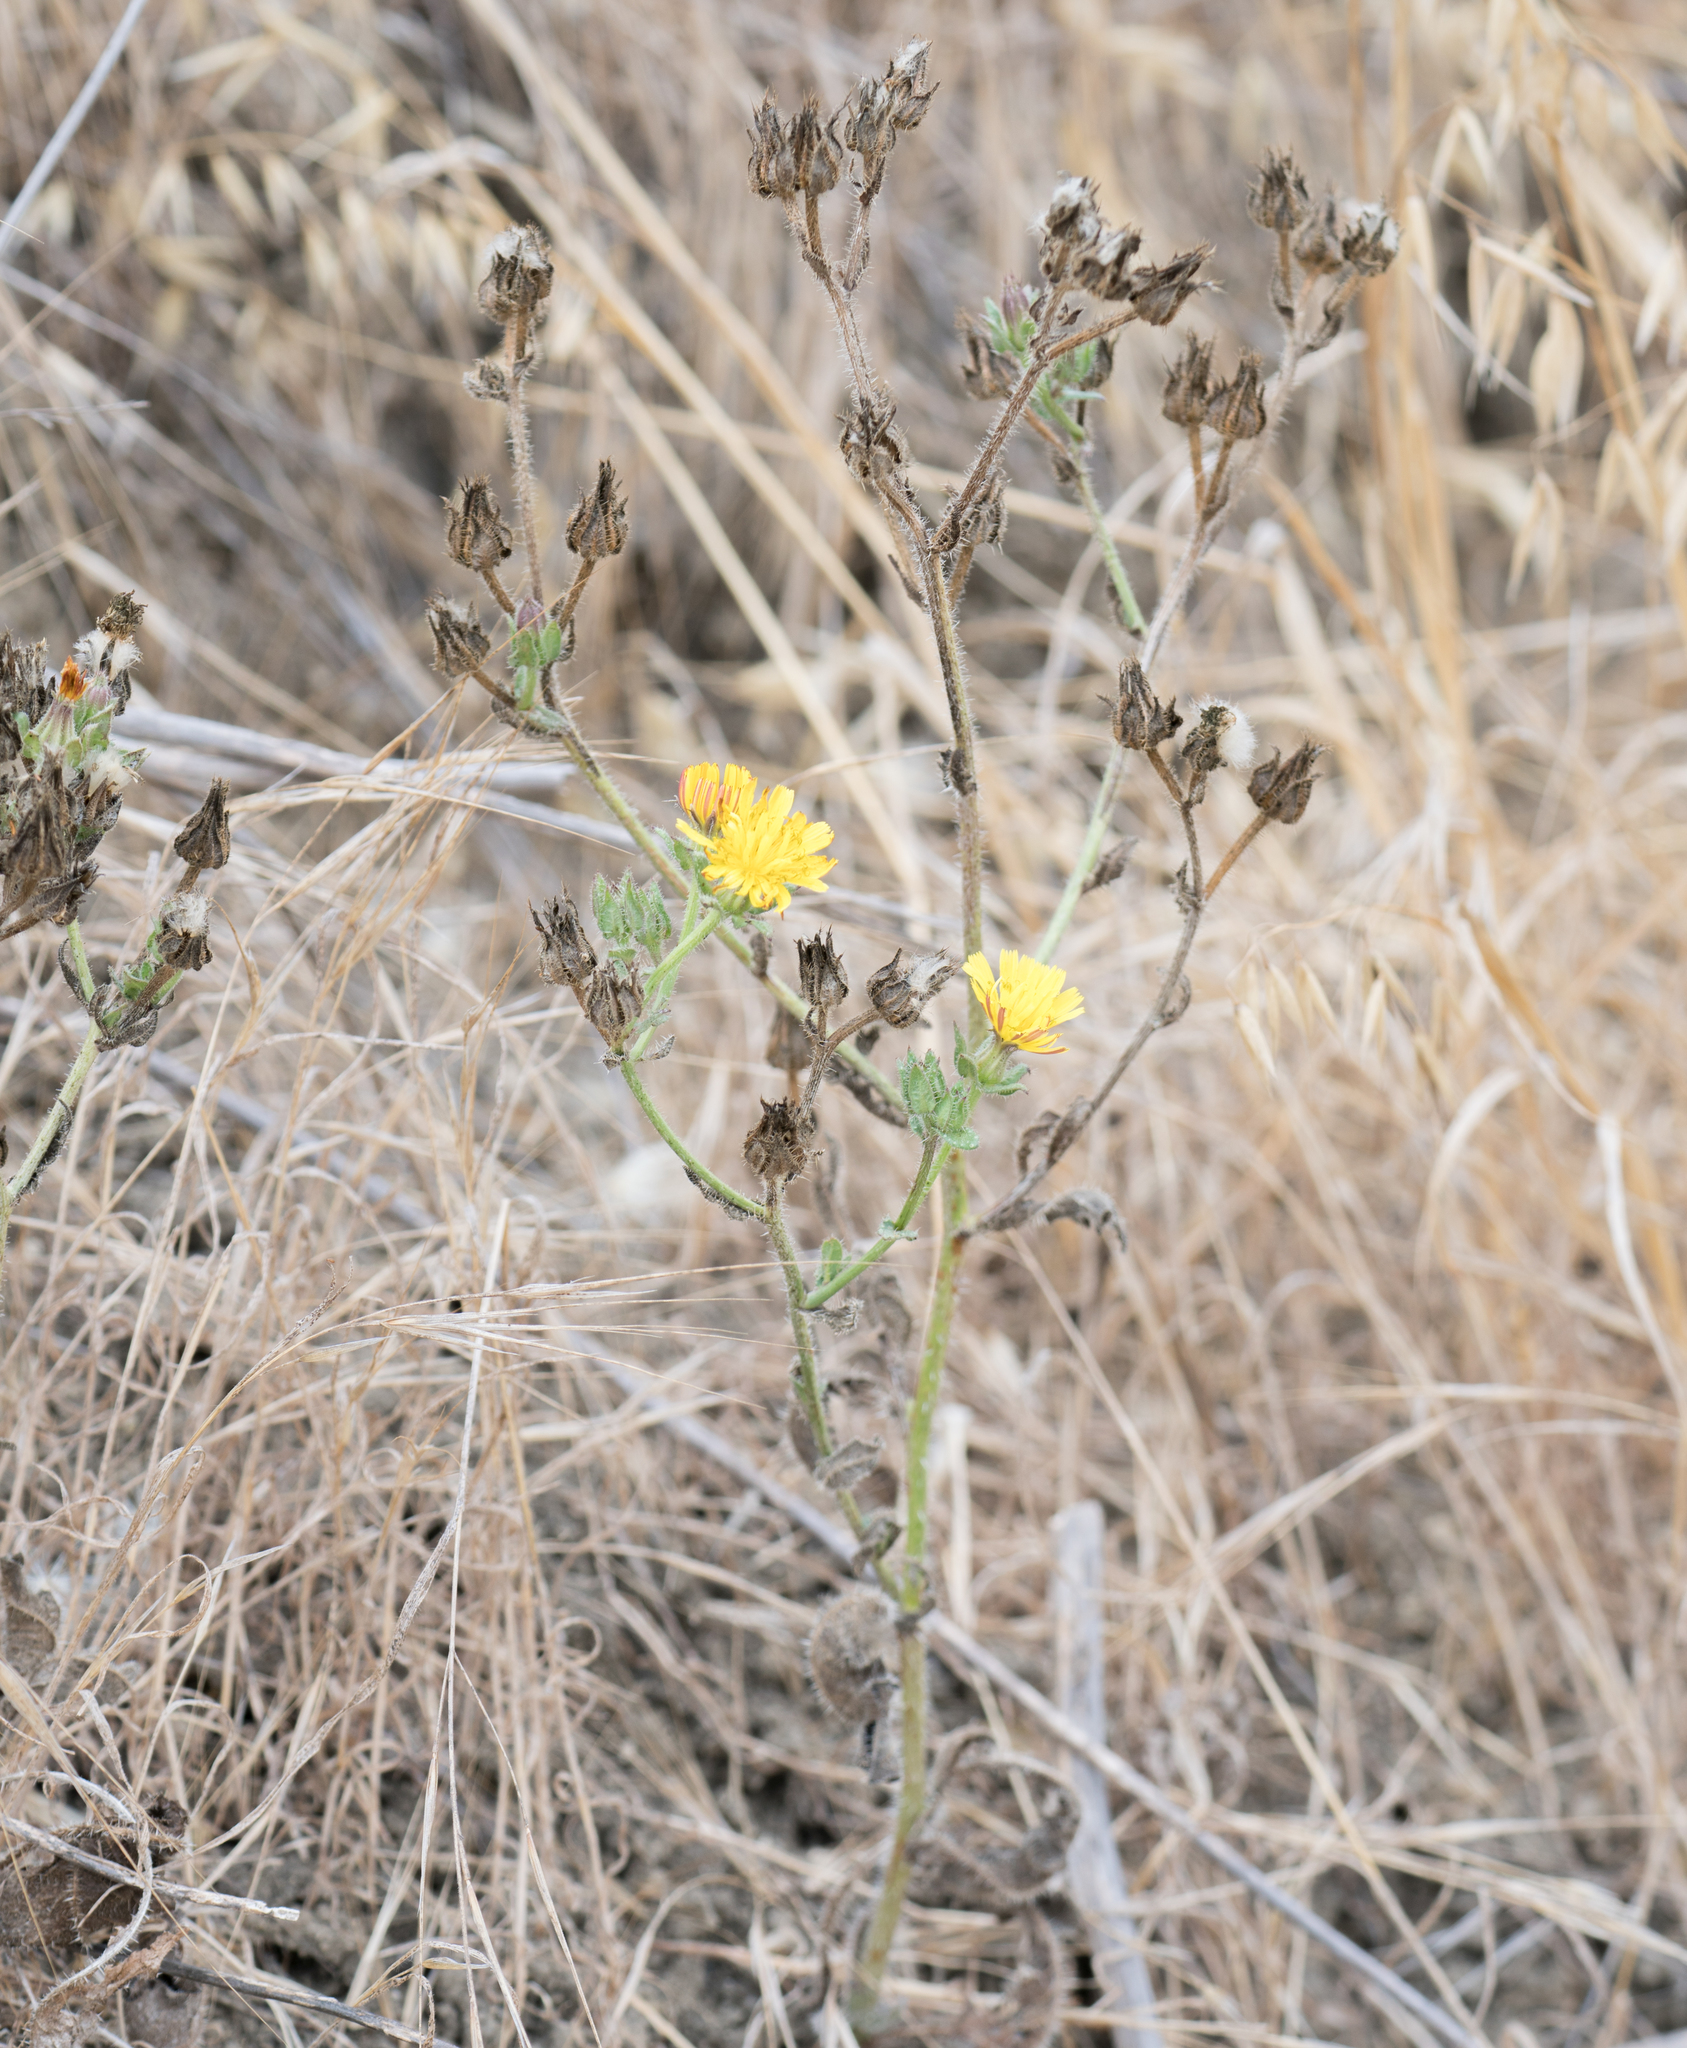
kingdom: Plantae
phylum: Tracheophyta
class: Magnoliopsida
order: Asterales
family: Asteraceae
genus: Helminthotheca
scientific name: Helminthotheca echioides
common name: Ox-tongue
